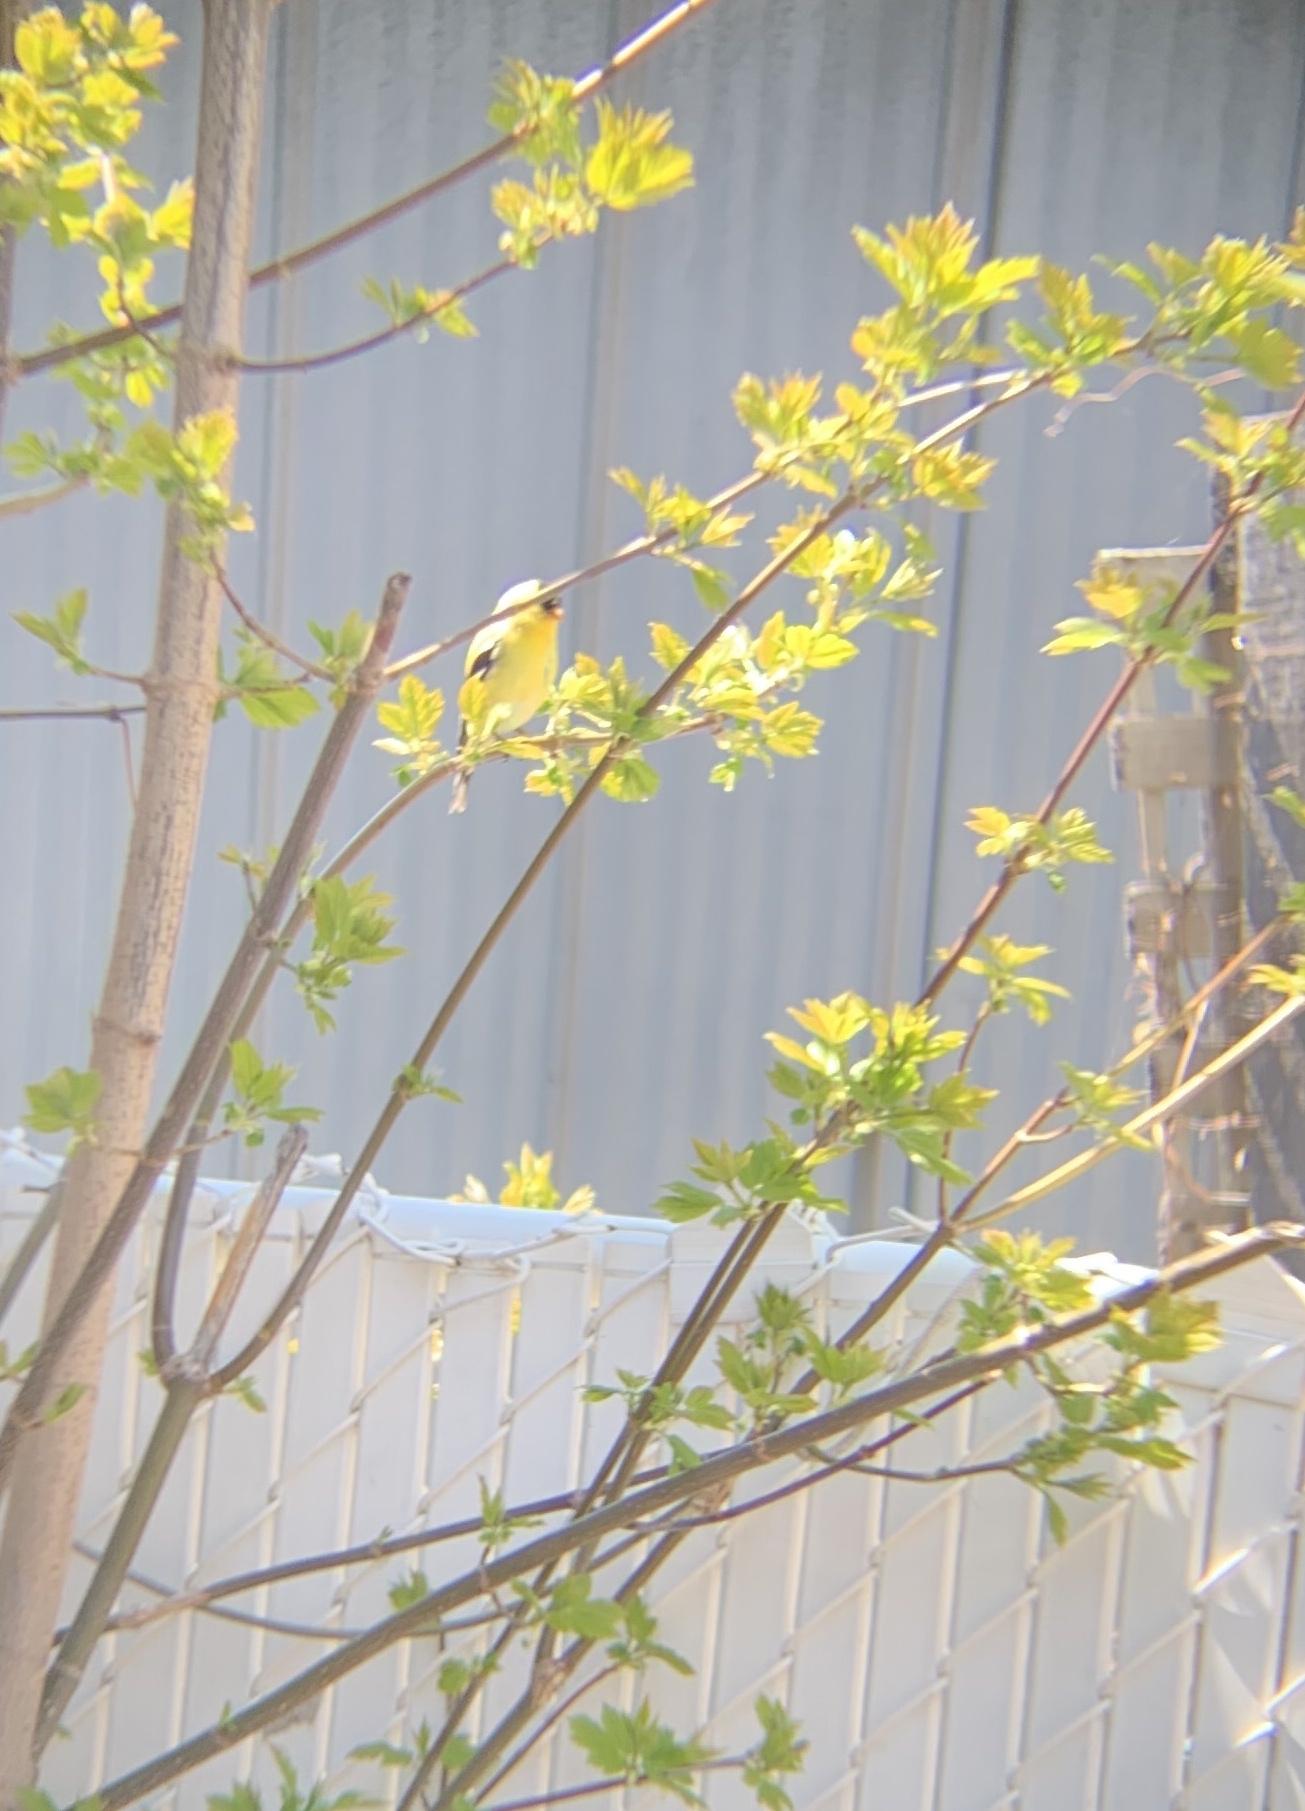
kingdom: Animalia
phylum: Chordata
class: Aves
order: Passeriformes
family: Fringillidae
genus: Spinus
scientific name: Spinus tristis
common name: American goldfinch
